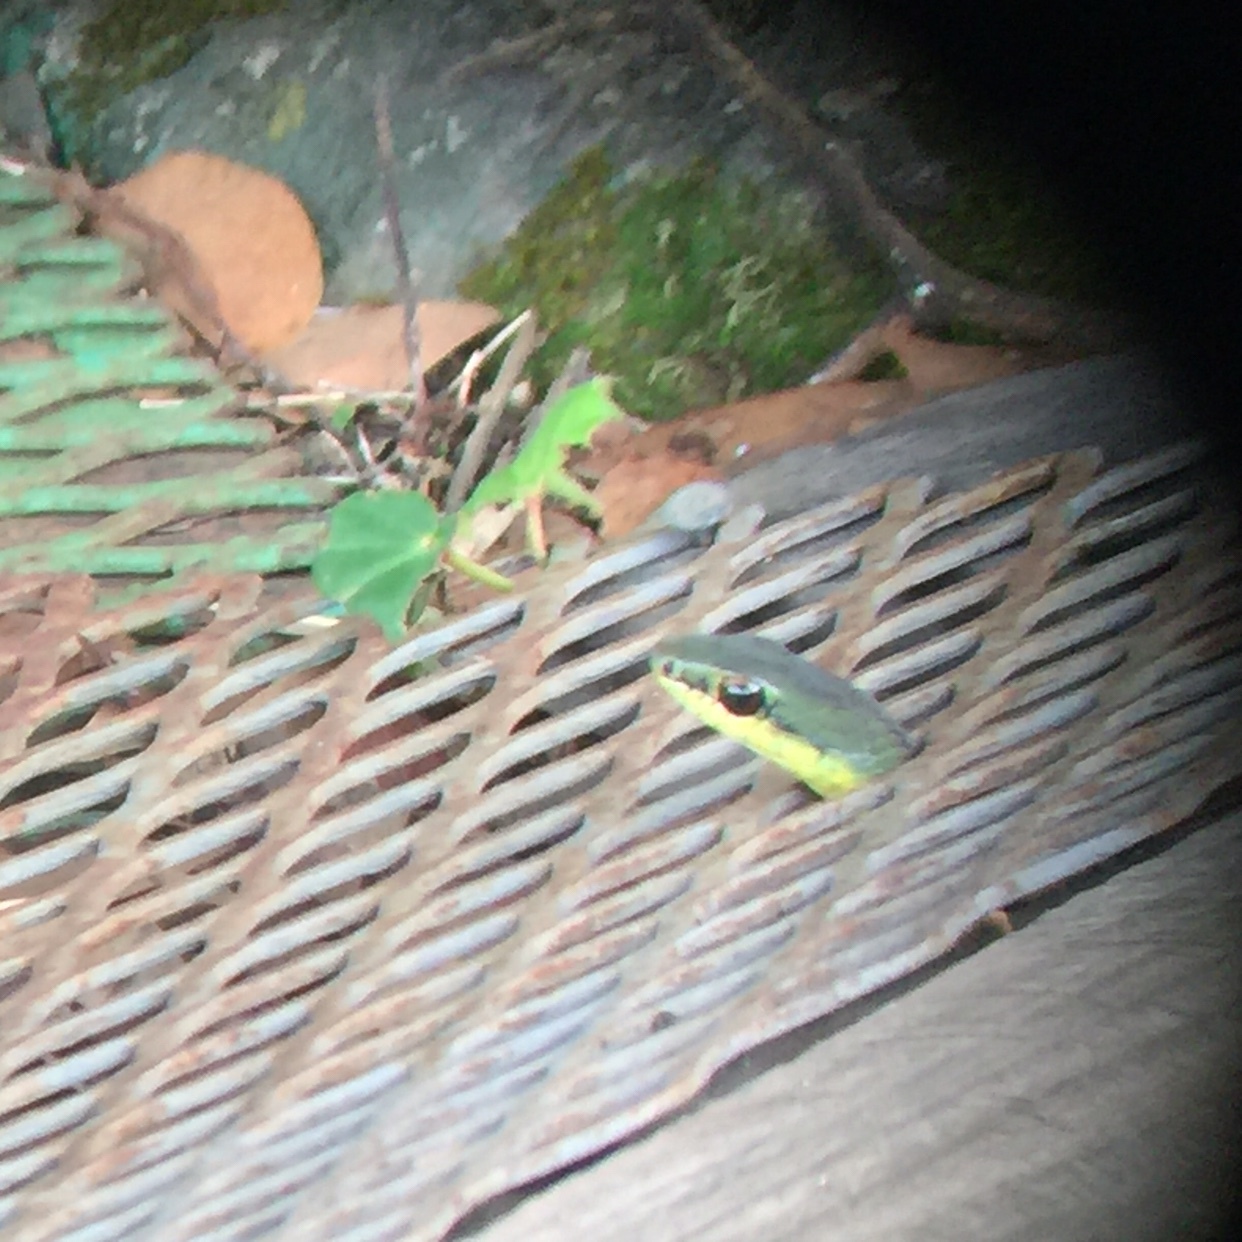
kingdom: Animalia
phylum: Chordata
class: Squamata
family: Colubridae
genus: Mastigodryas
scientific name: Mastigodryas dorsalis
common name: Striped lizard eater
